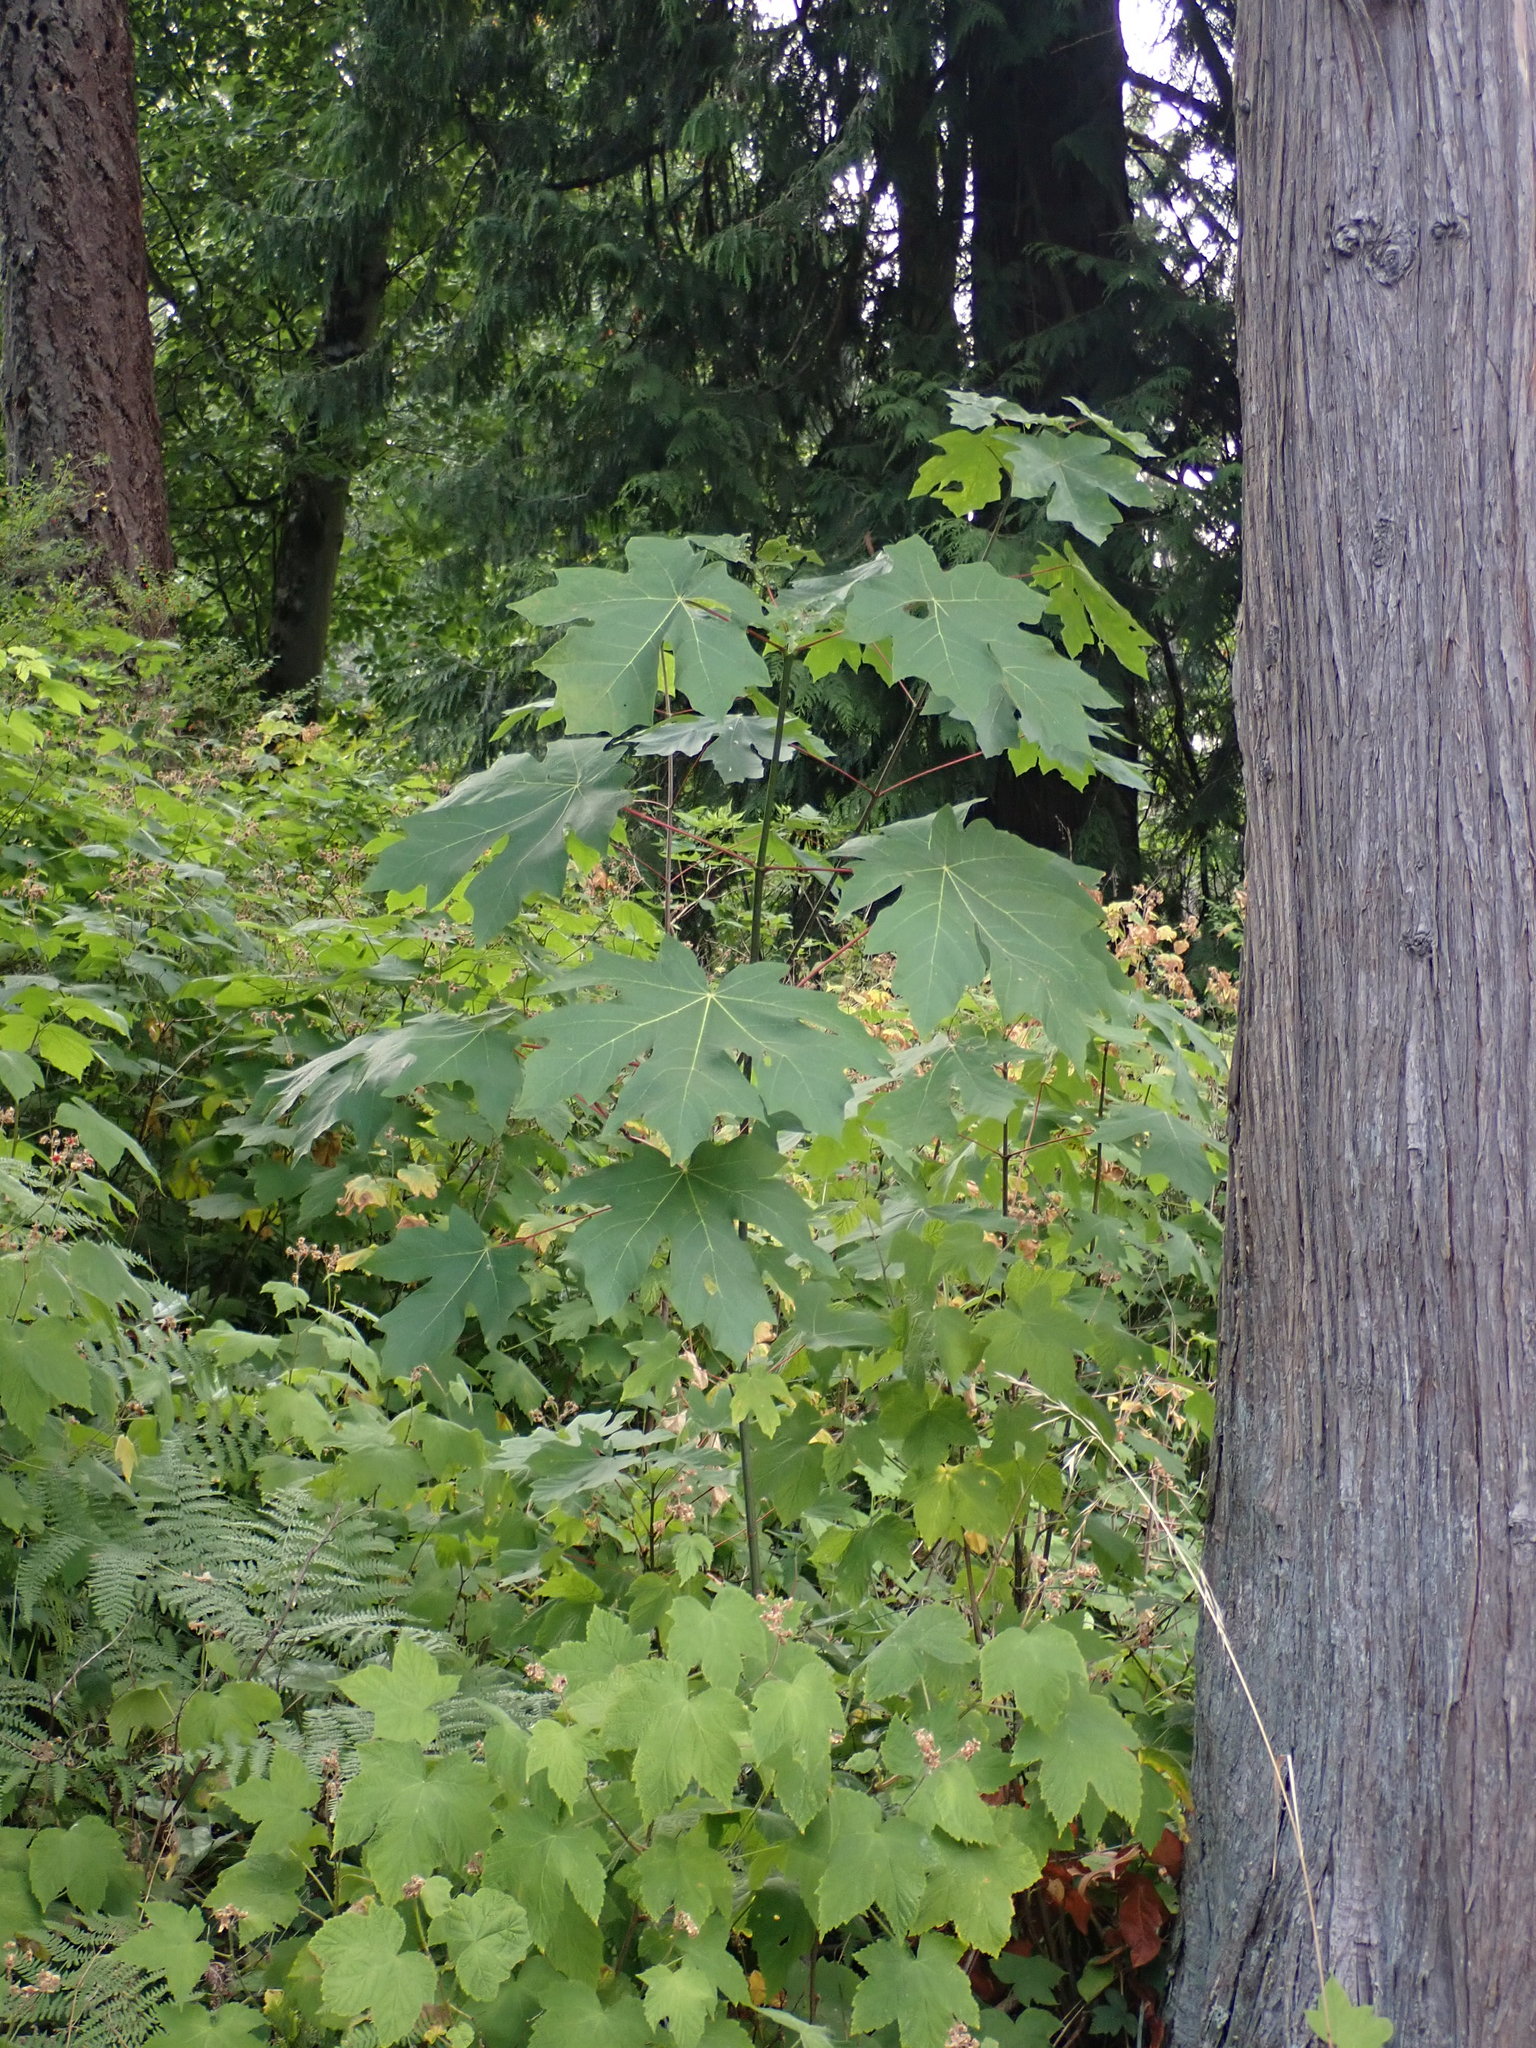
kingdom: Plantae
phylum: Tracheophyta
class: Magnoliopsida
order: Sapindales
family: Sapindaceae
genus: Acer
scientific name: Acer macrophyllum
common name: Oregon maple
